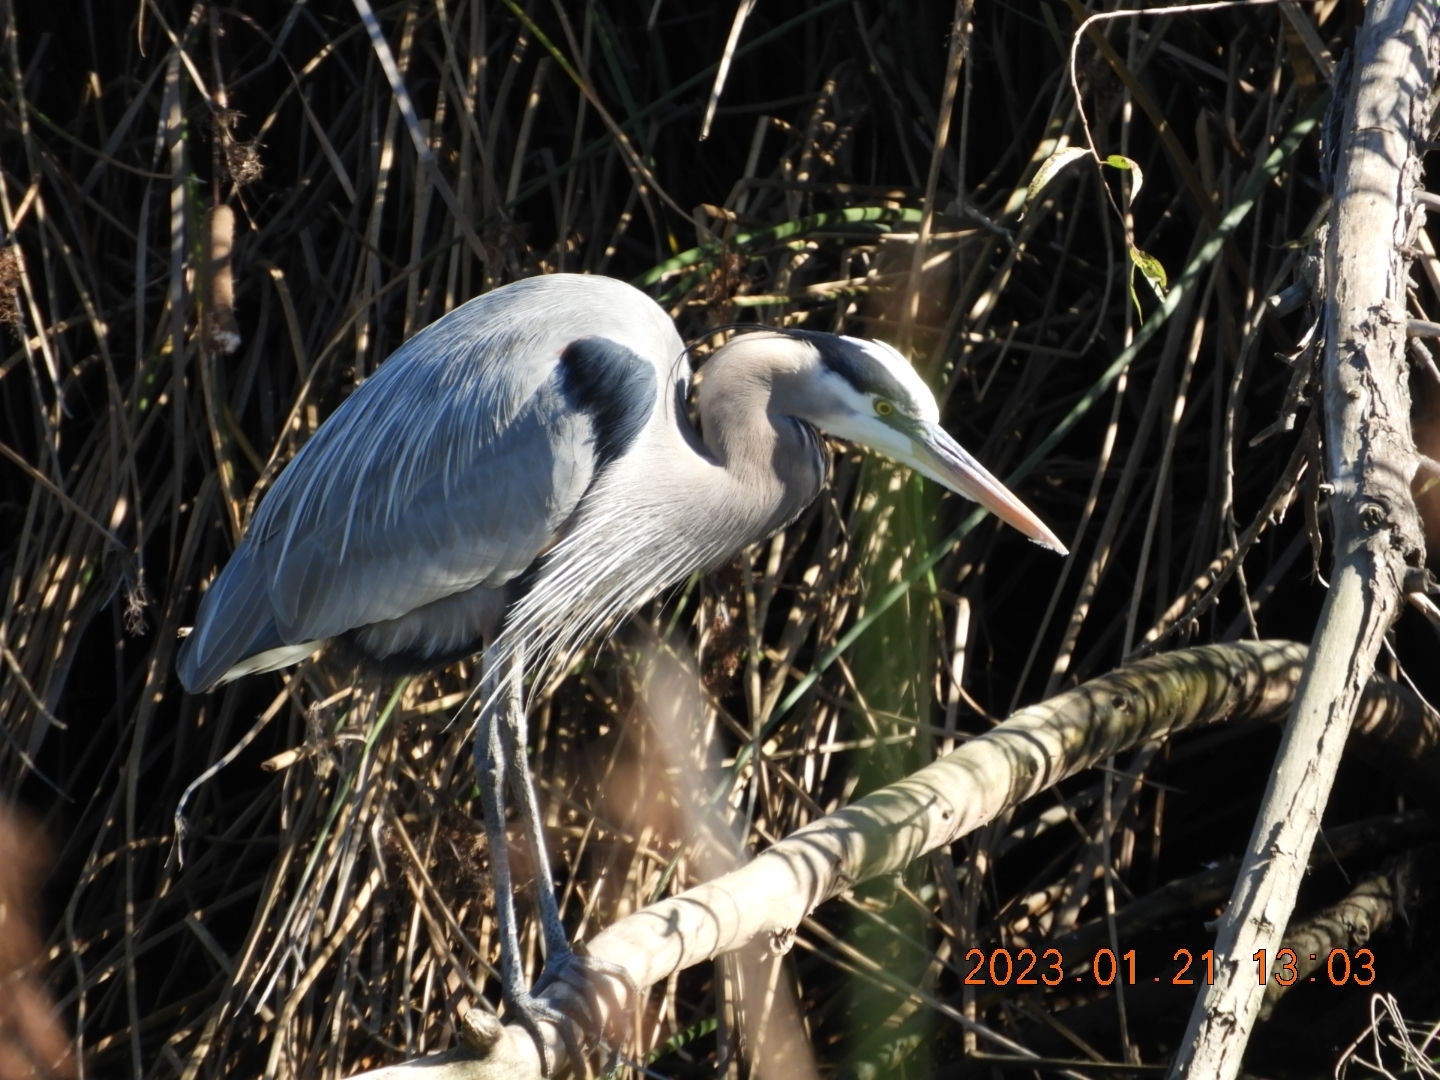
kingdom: Animalia
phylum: Chordata
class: Aves
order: Pelecaniformes
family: Ardeidae
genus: Ardea
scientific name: Ardea herodias
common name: Great blue heron
